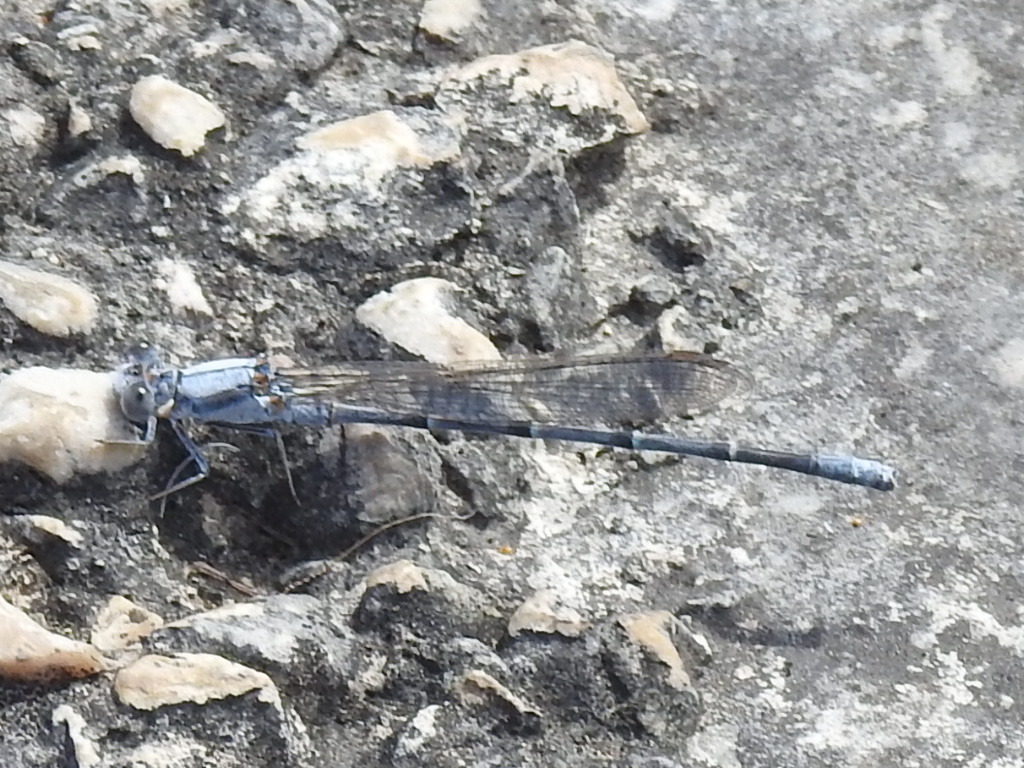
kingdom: Animalia
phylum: Arthropoda
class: Insecta
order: Odonata
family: Coenagrionidae
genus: Argia
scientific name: Argia moesta
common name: Powdered dancer
